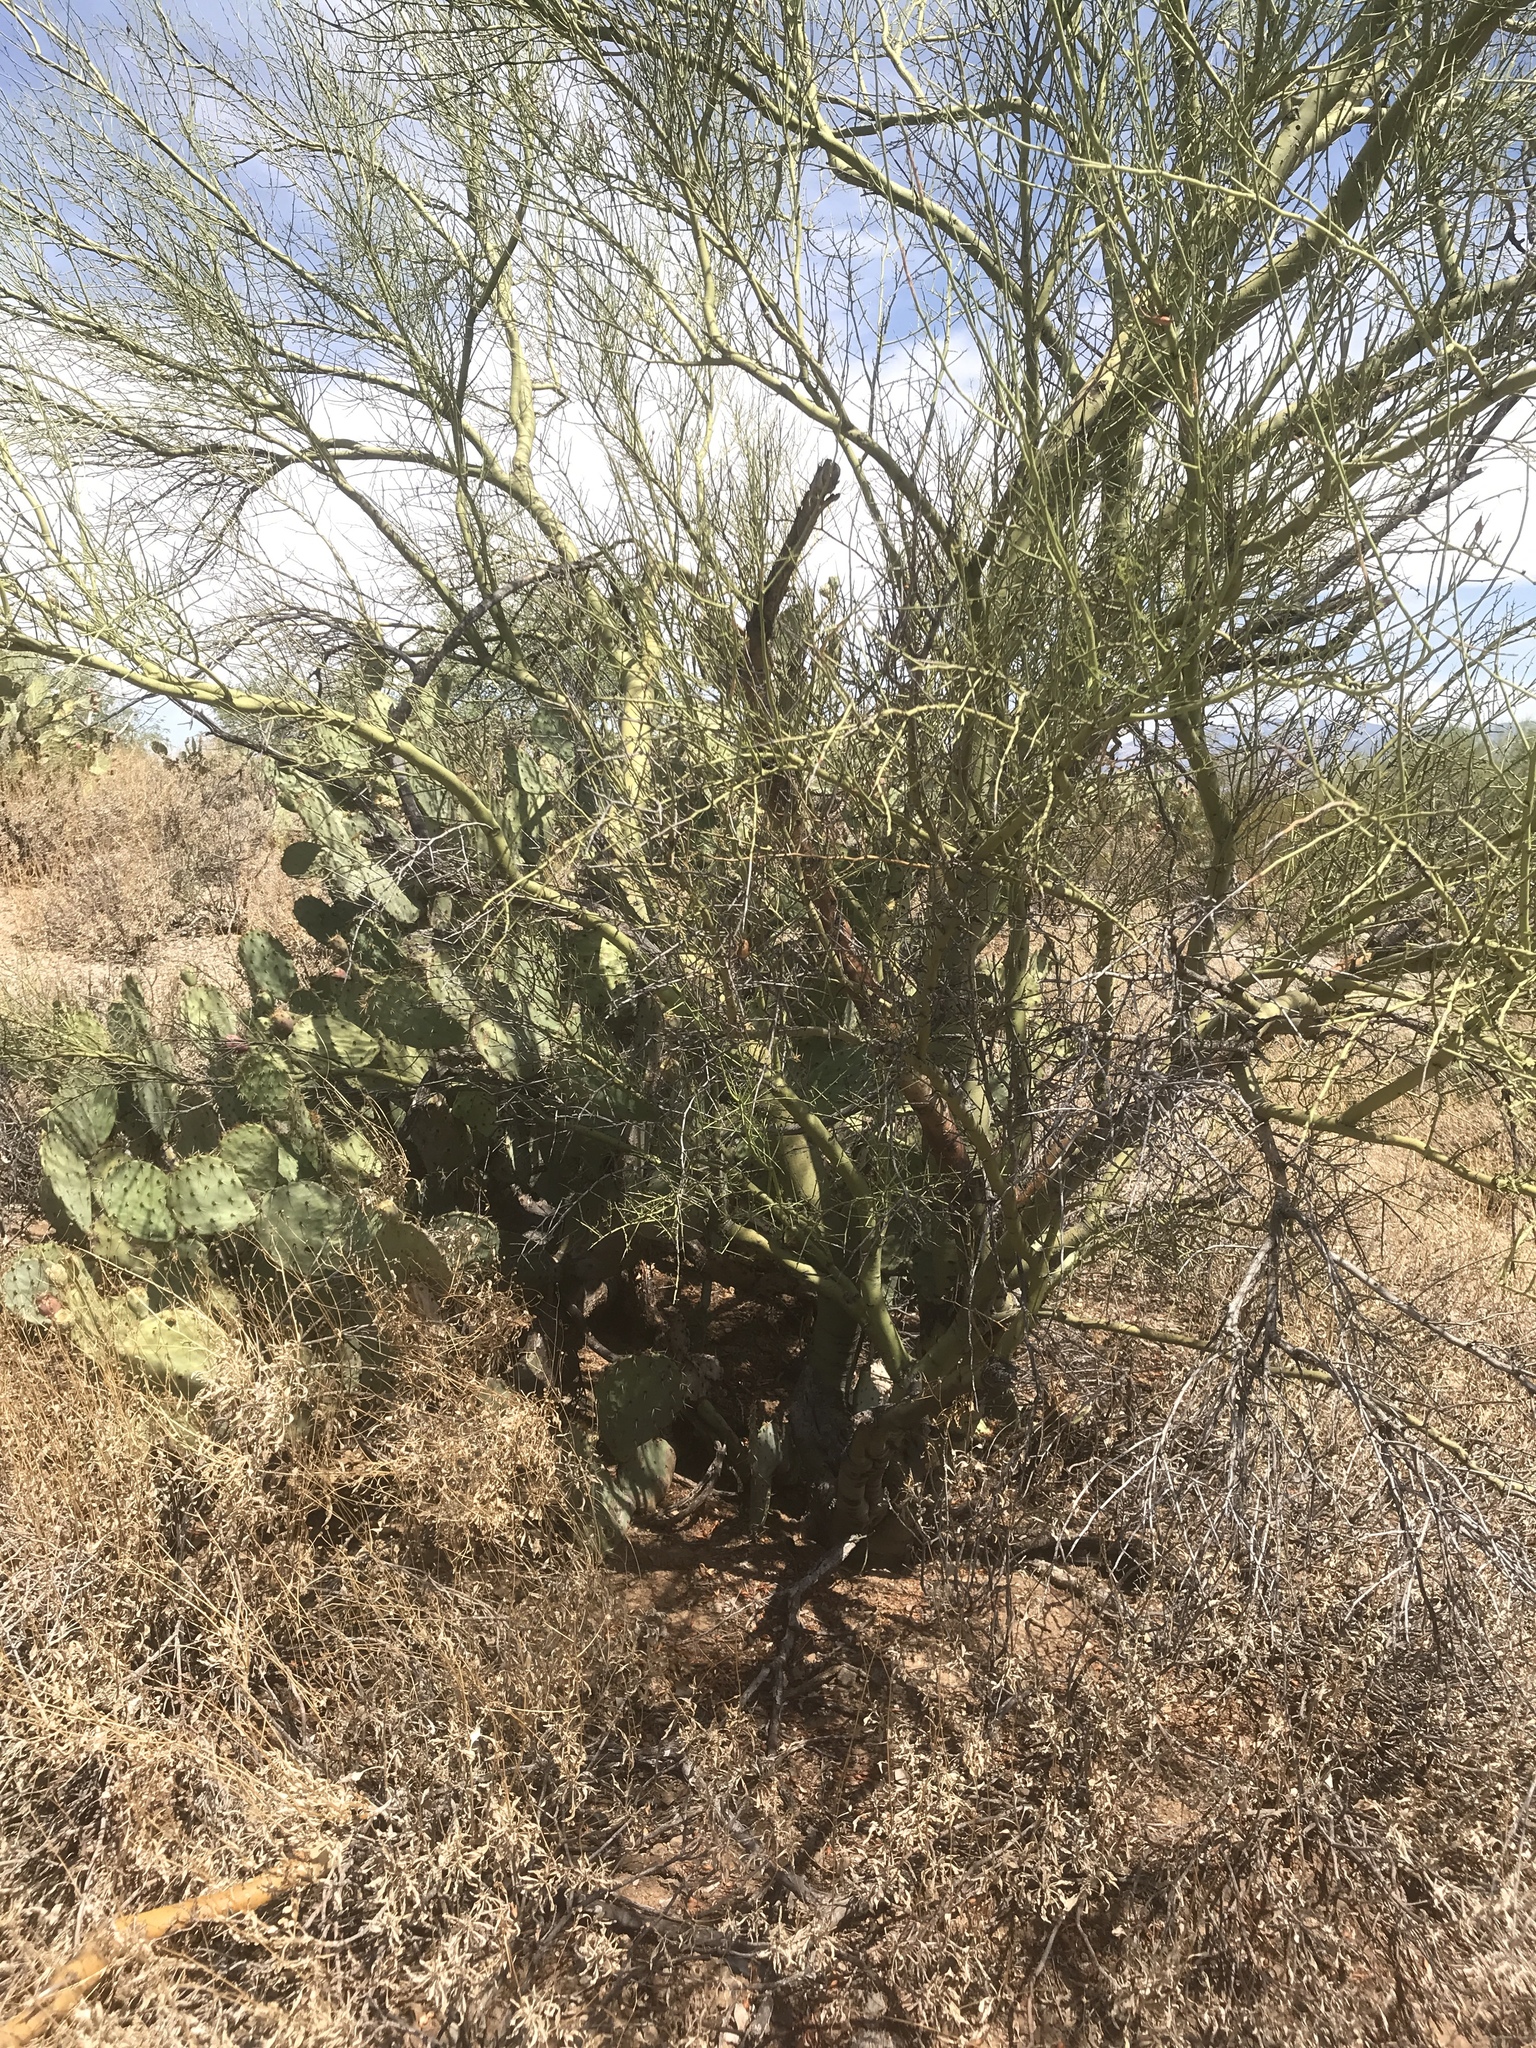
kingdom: Plantae
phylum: Tracheophyta
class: Magnoliopsida
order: Fabales
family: Fabaceae
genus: Parkinsonia
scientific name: Parkinsonia microphylla
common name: Yellow paloverde
